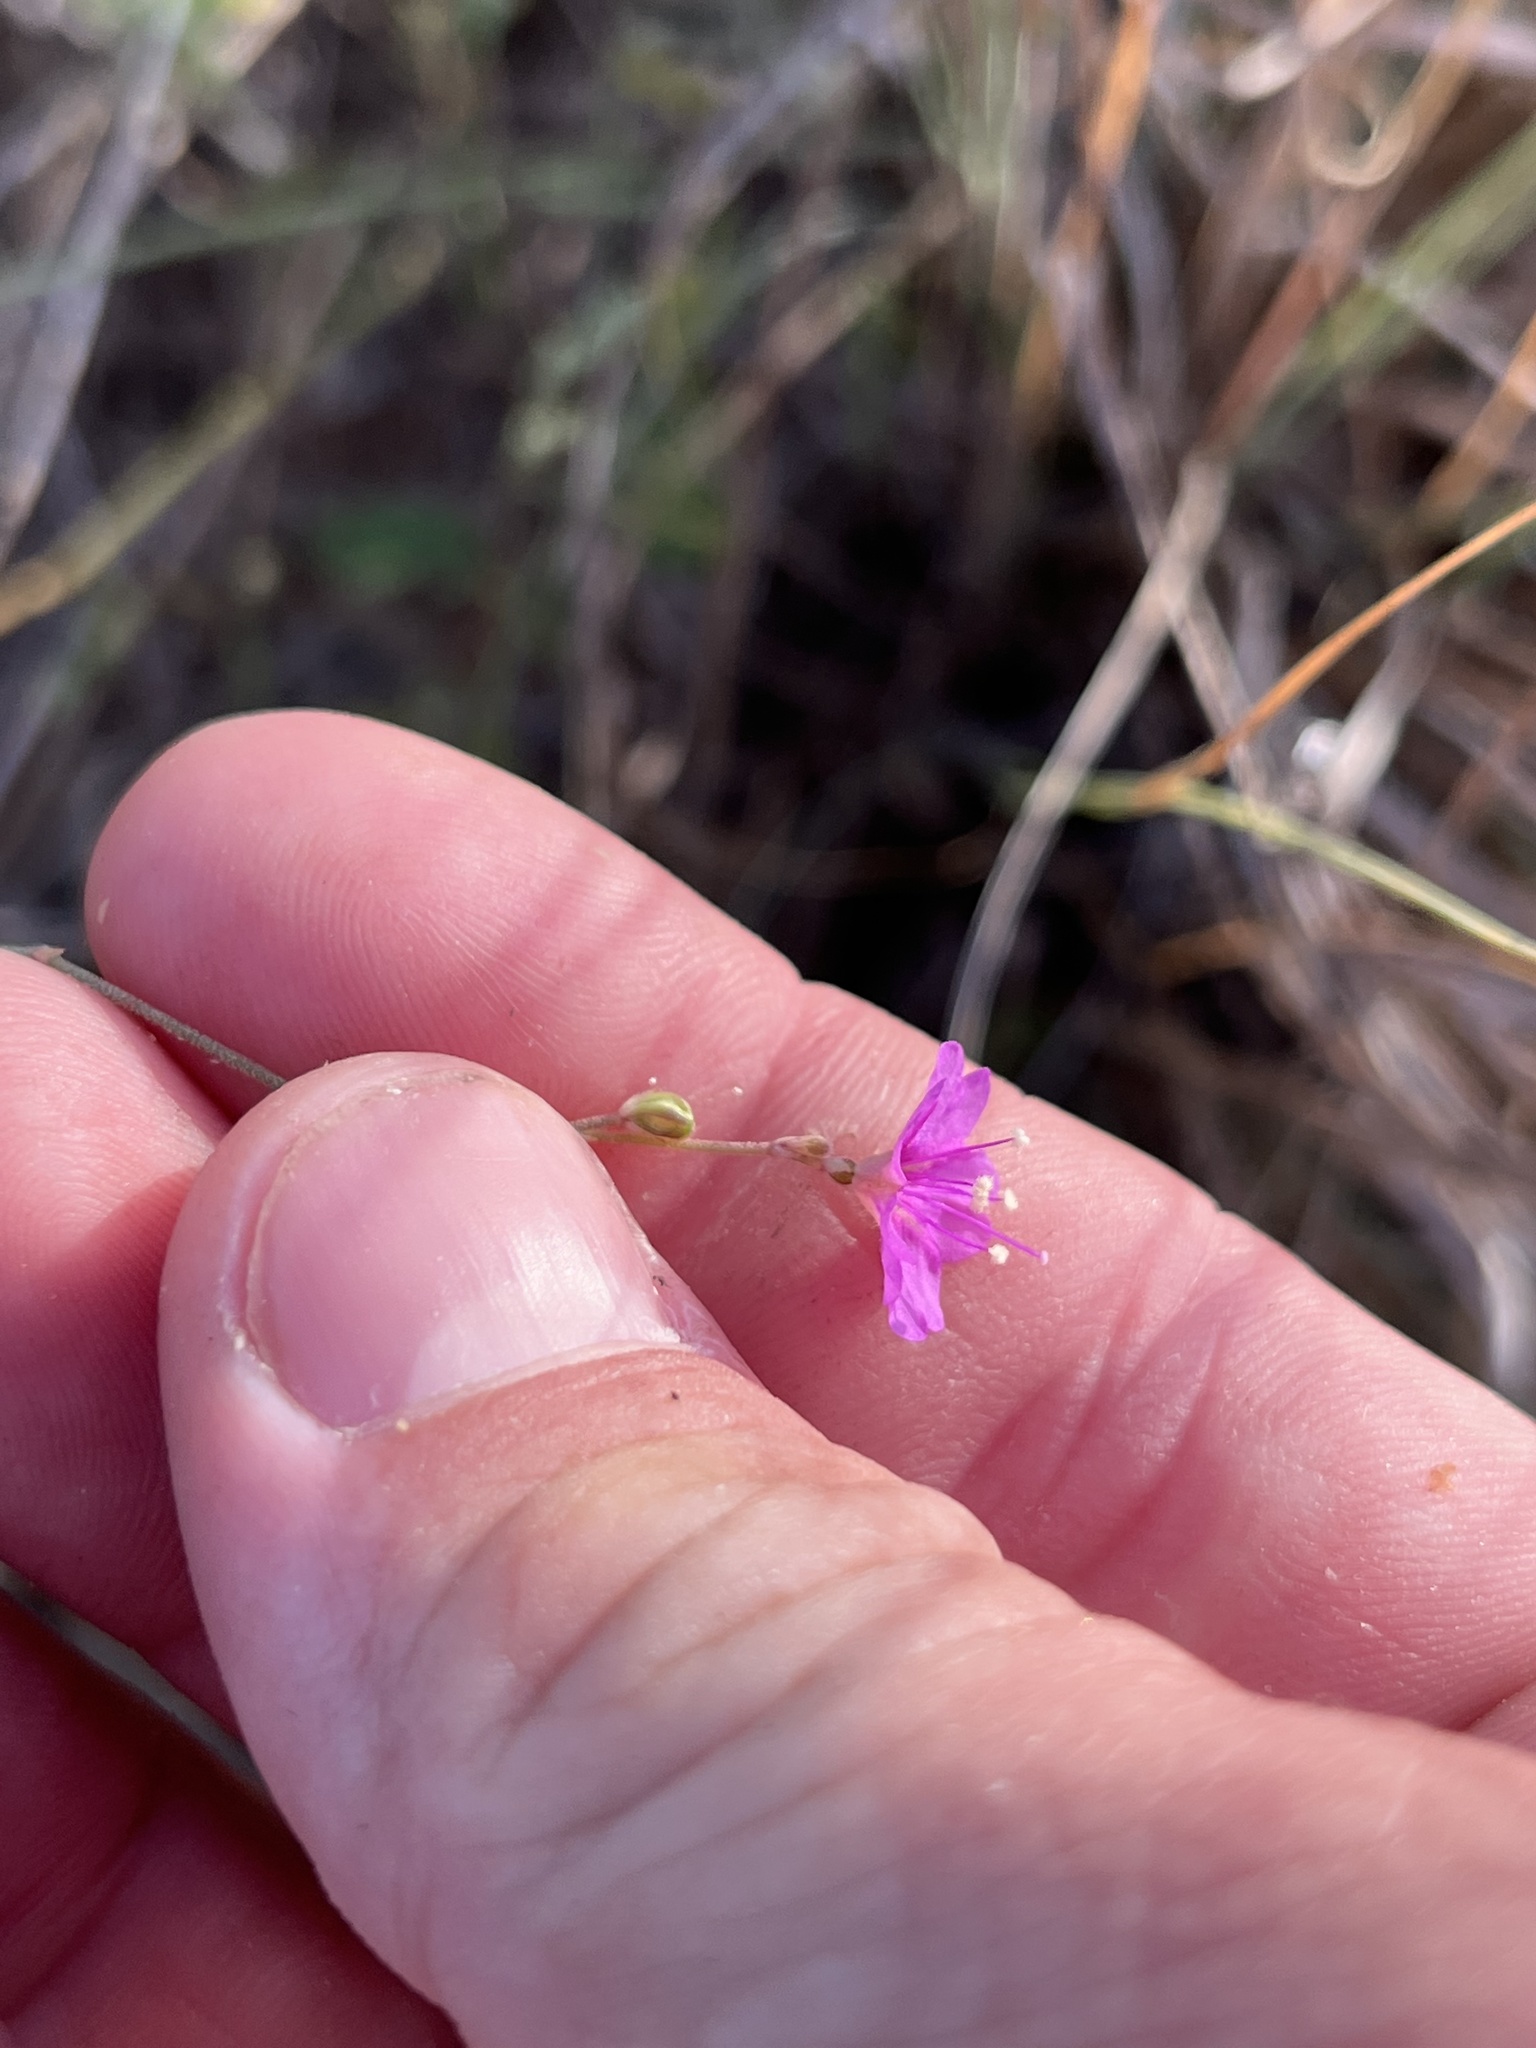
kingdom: Plantae
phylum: Tracheophyta
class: Magnoliopsida
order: Caryophyllales
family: Nyctaginaceae
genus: Boerhavia
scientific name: Boerhavia linearifolia
